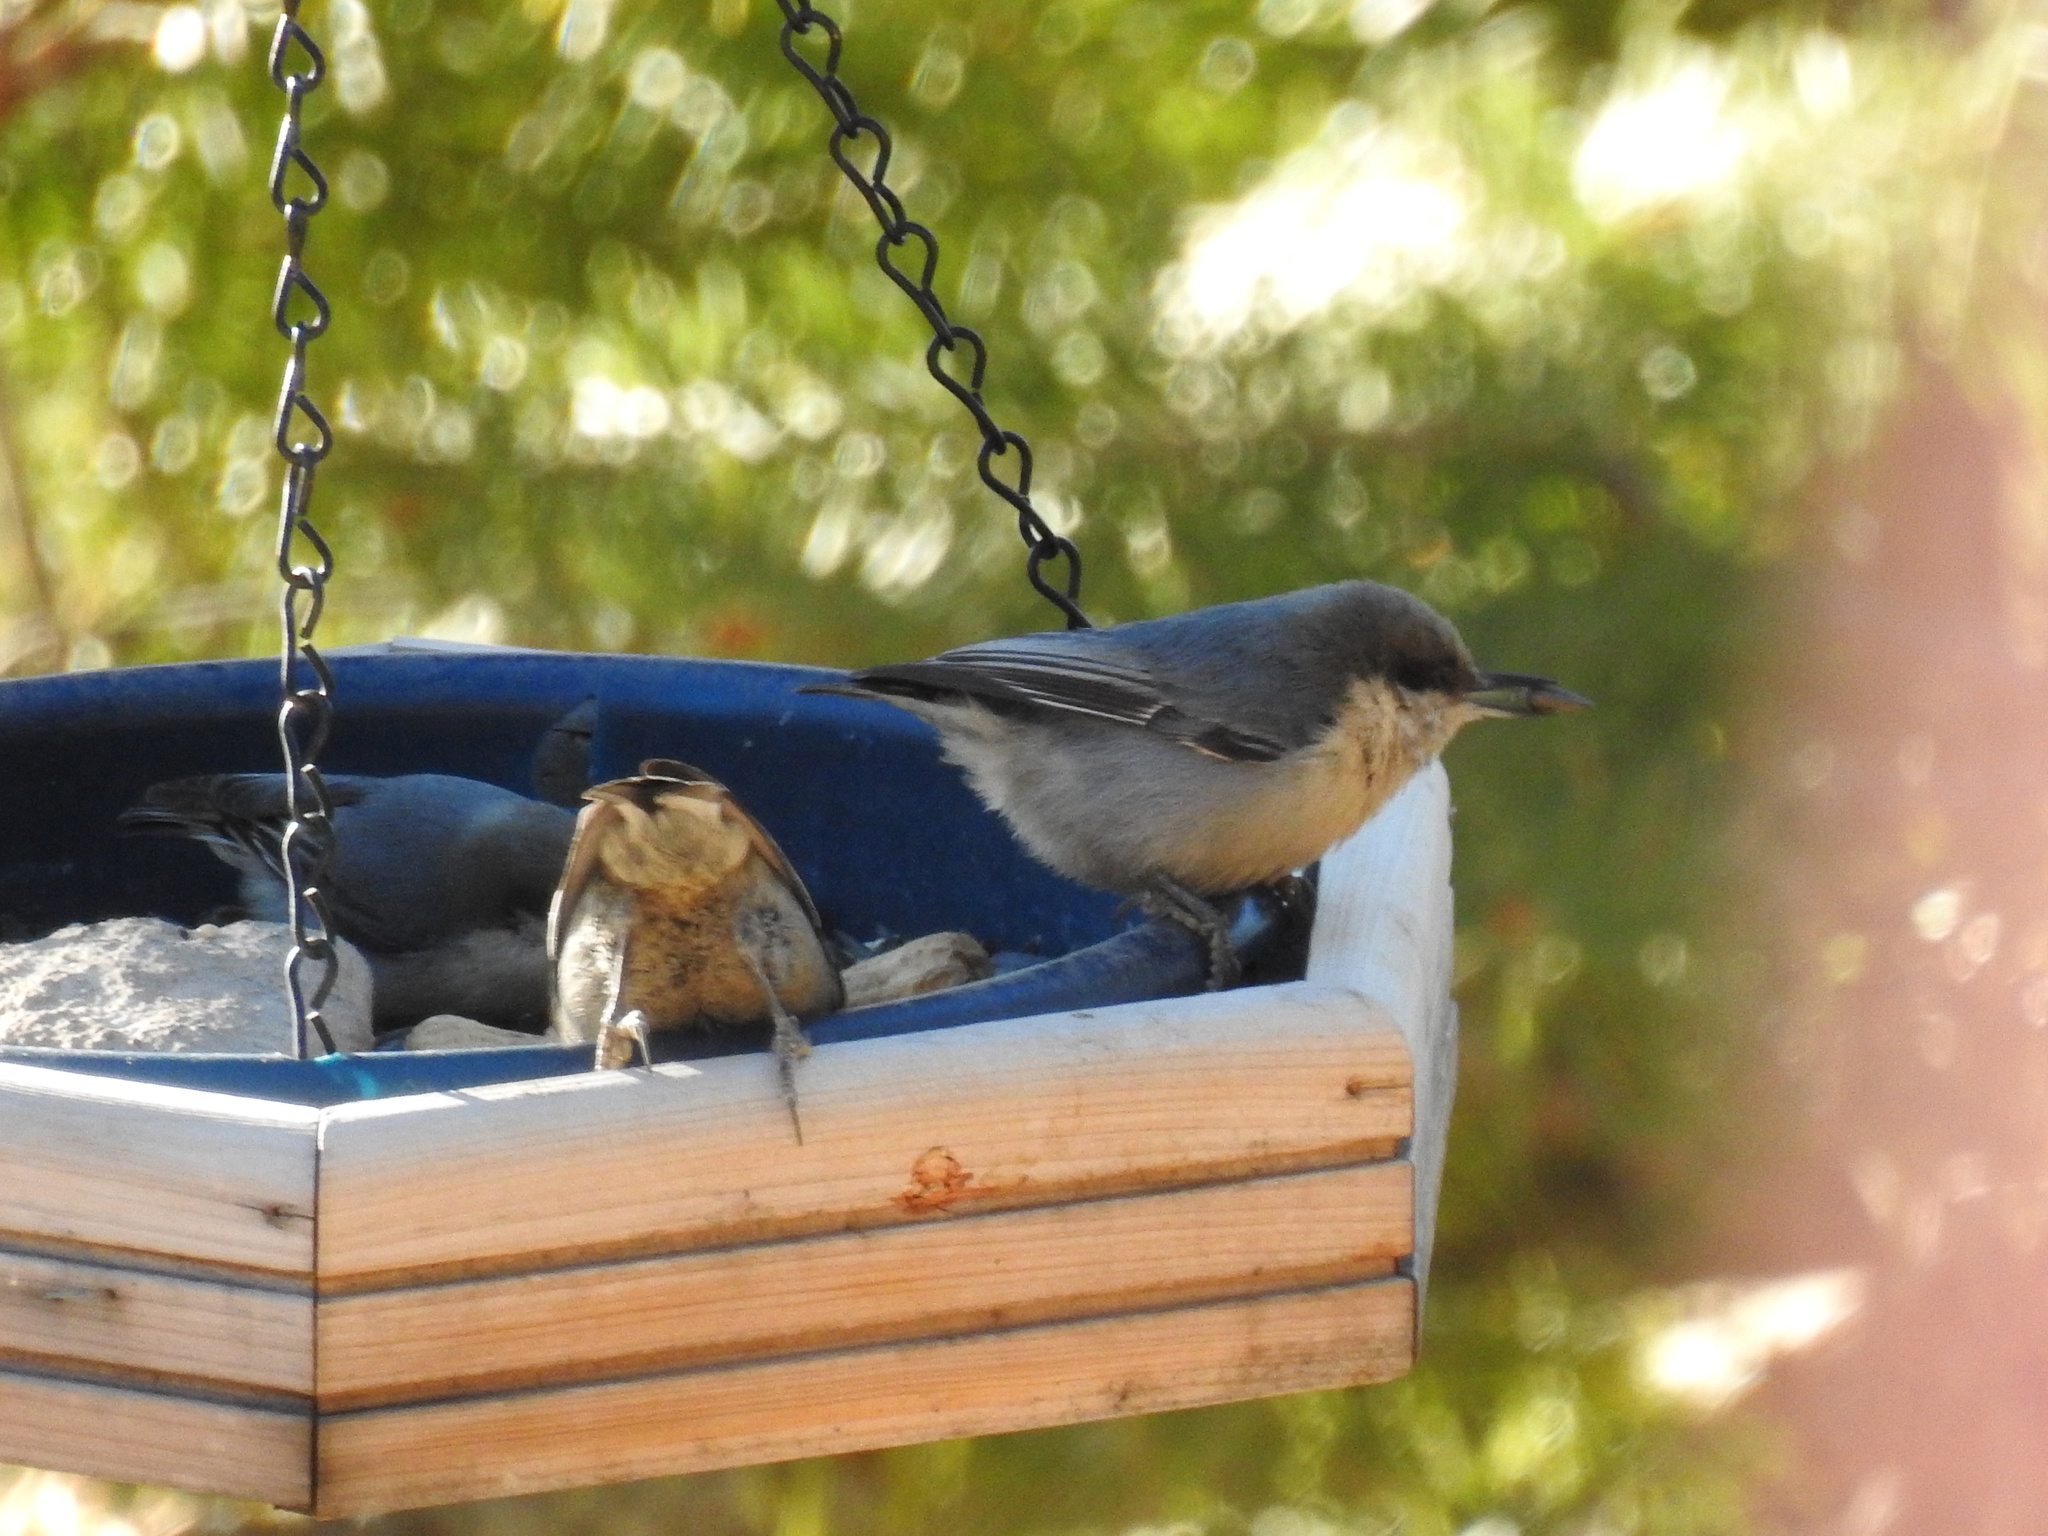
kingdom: Animalia
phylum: Chordata
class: Aves
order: Passeriformes
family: Sittidae
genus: Sitta
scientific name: Sitta pygmaea
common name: Pygmy nuthatch
